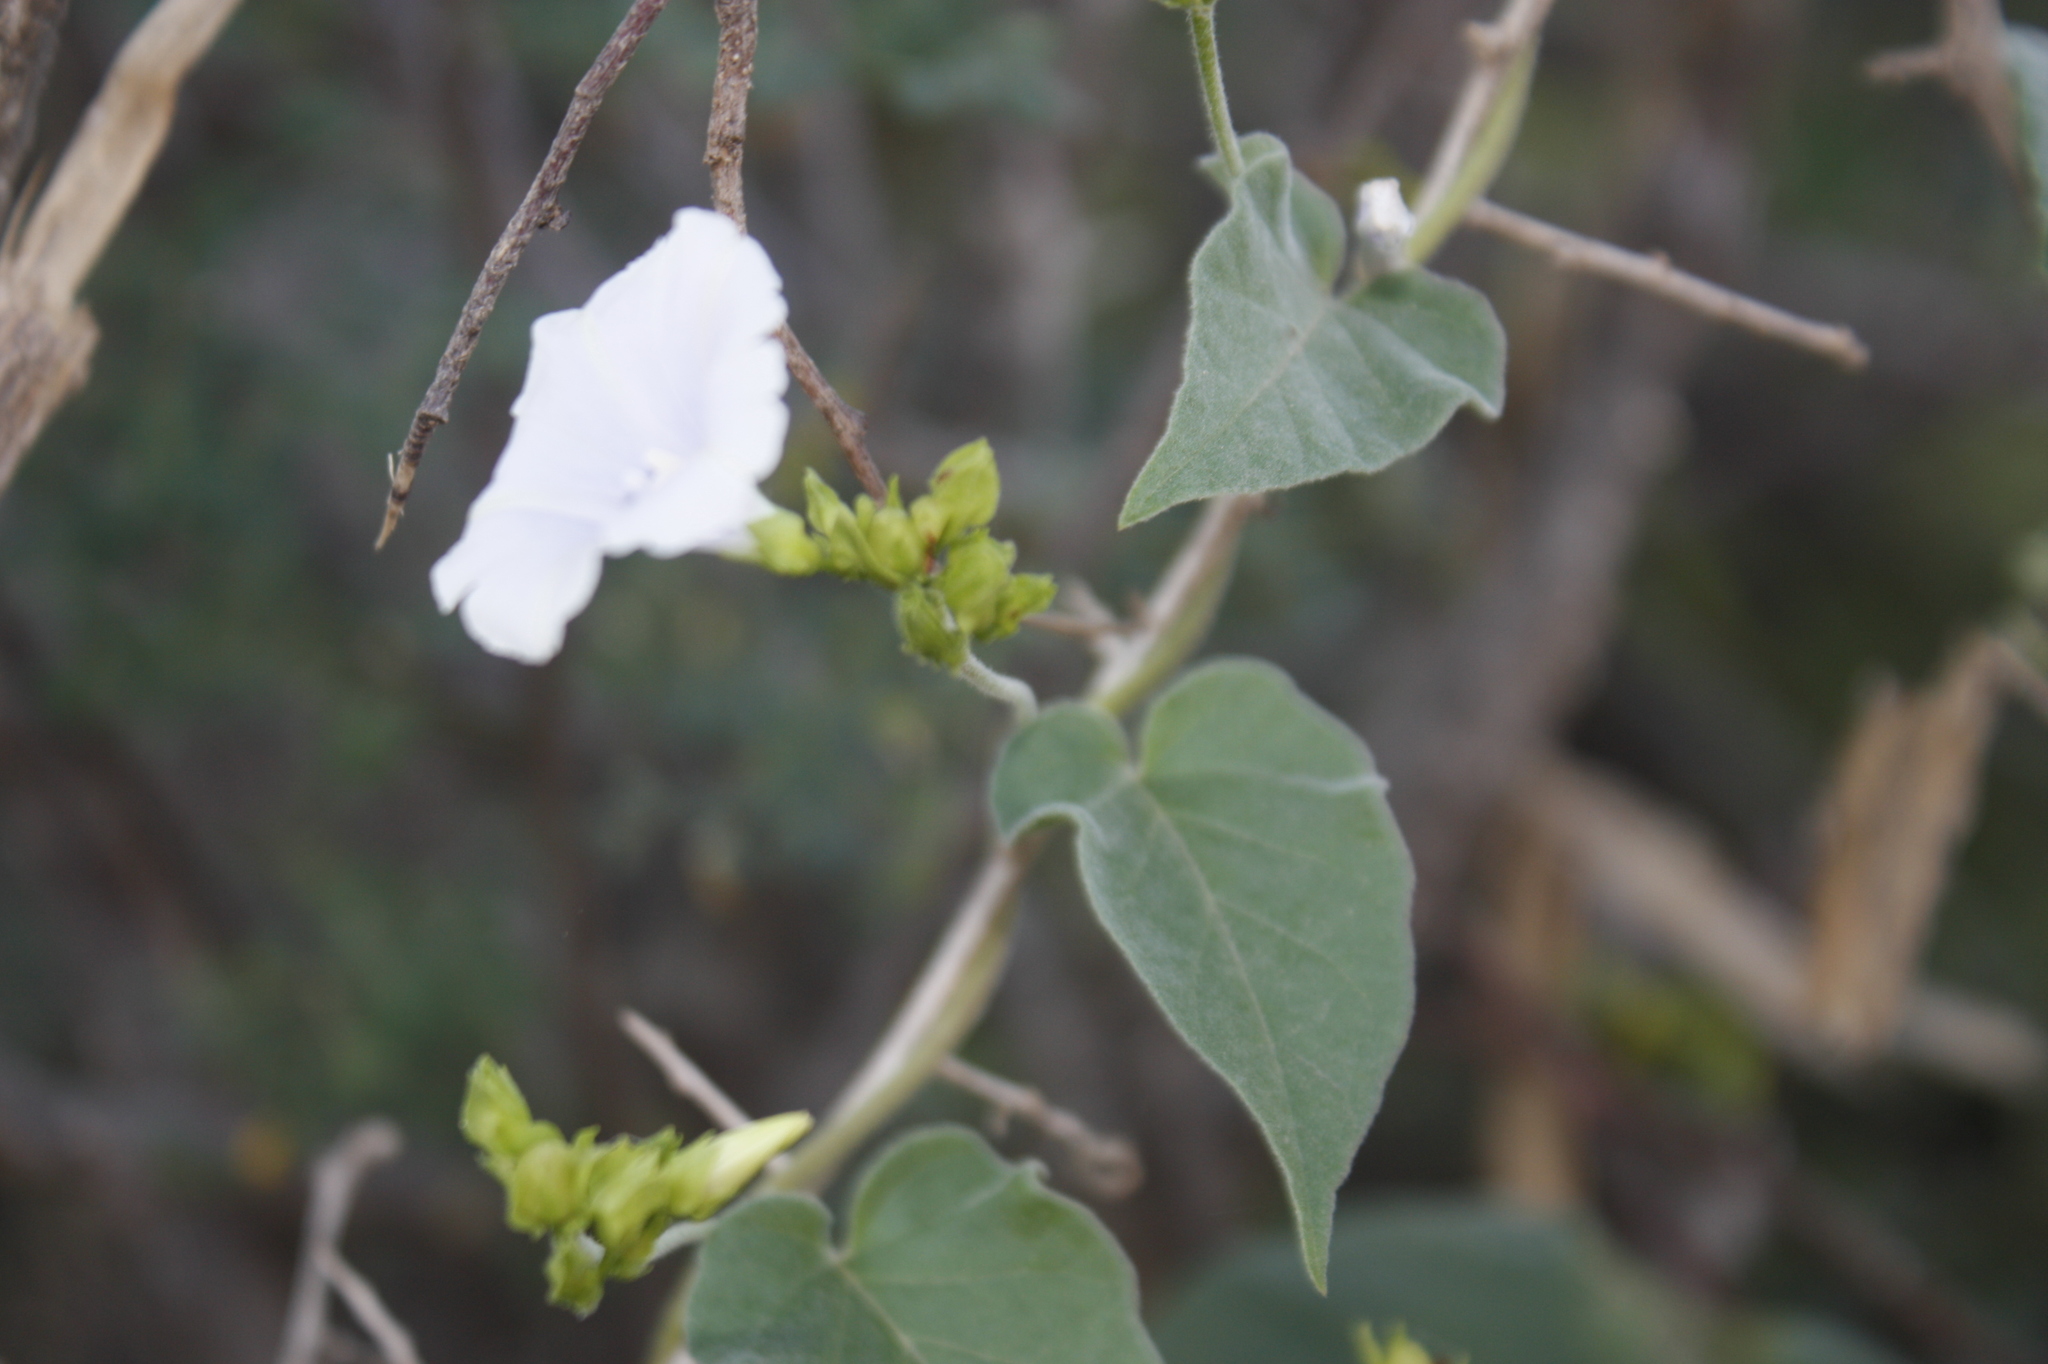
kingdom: Plantae
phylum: Tracheophyta
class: Magnoliopsida
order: Solanales
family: Convolvulaceae
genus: Jacquemontia
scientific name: Jacquemontia pringlei
